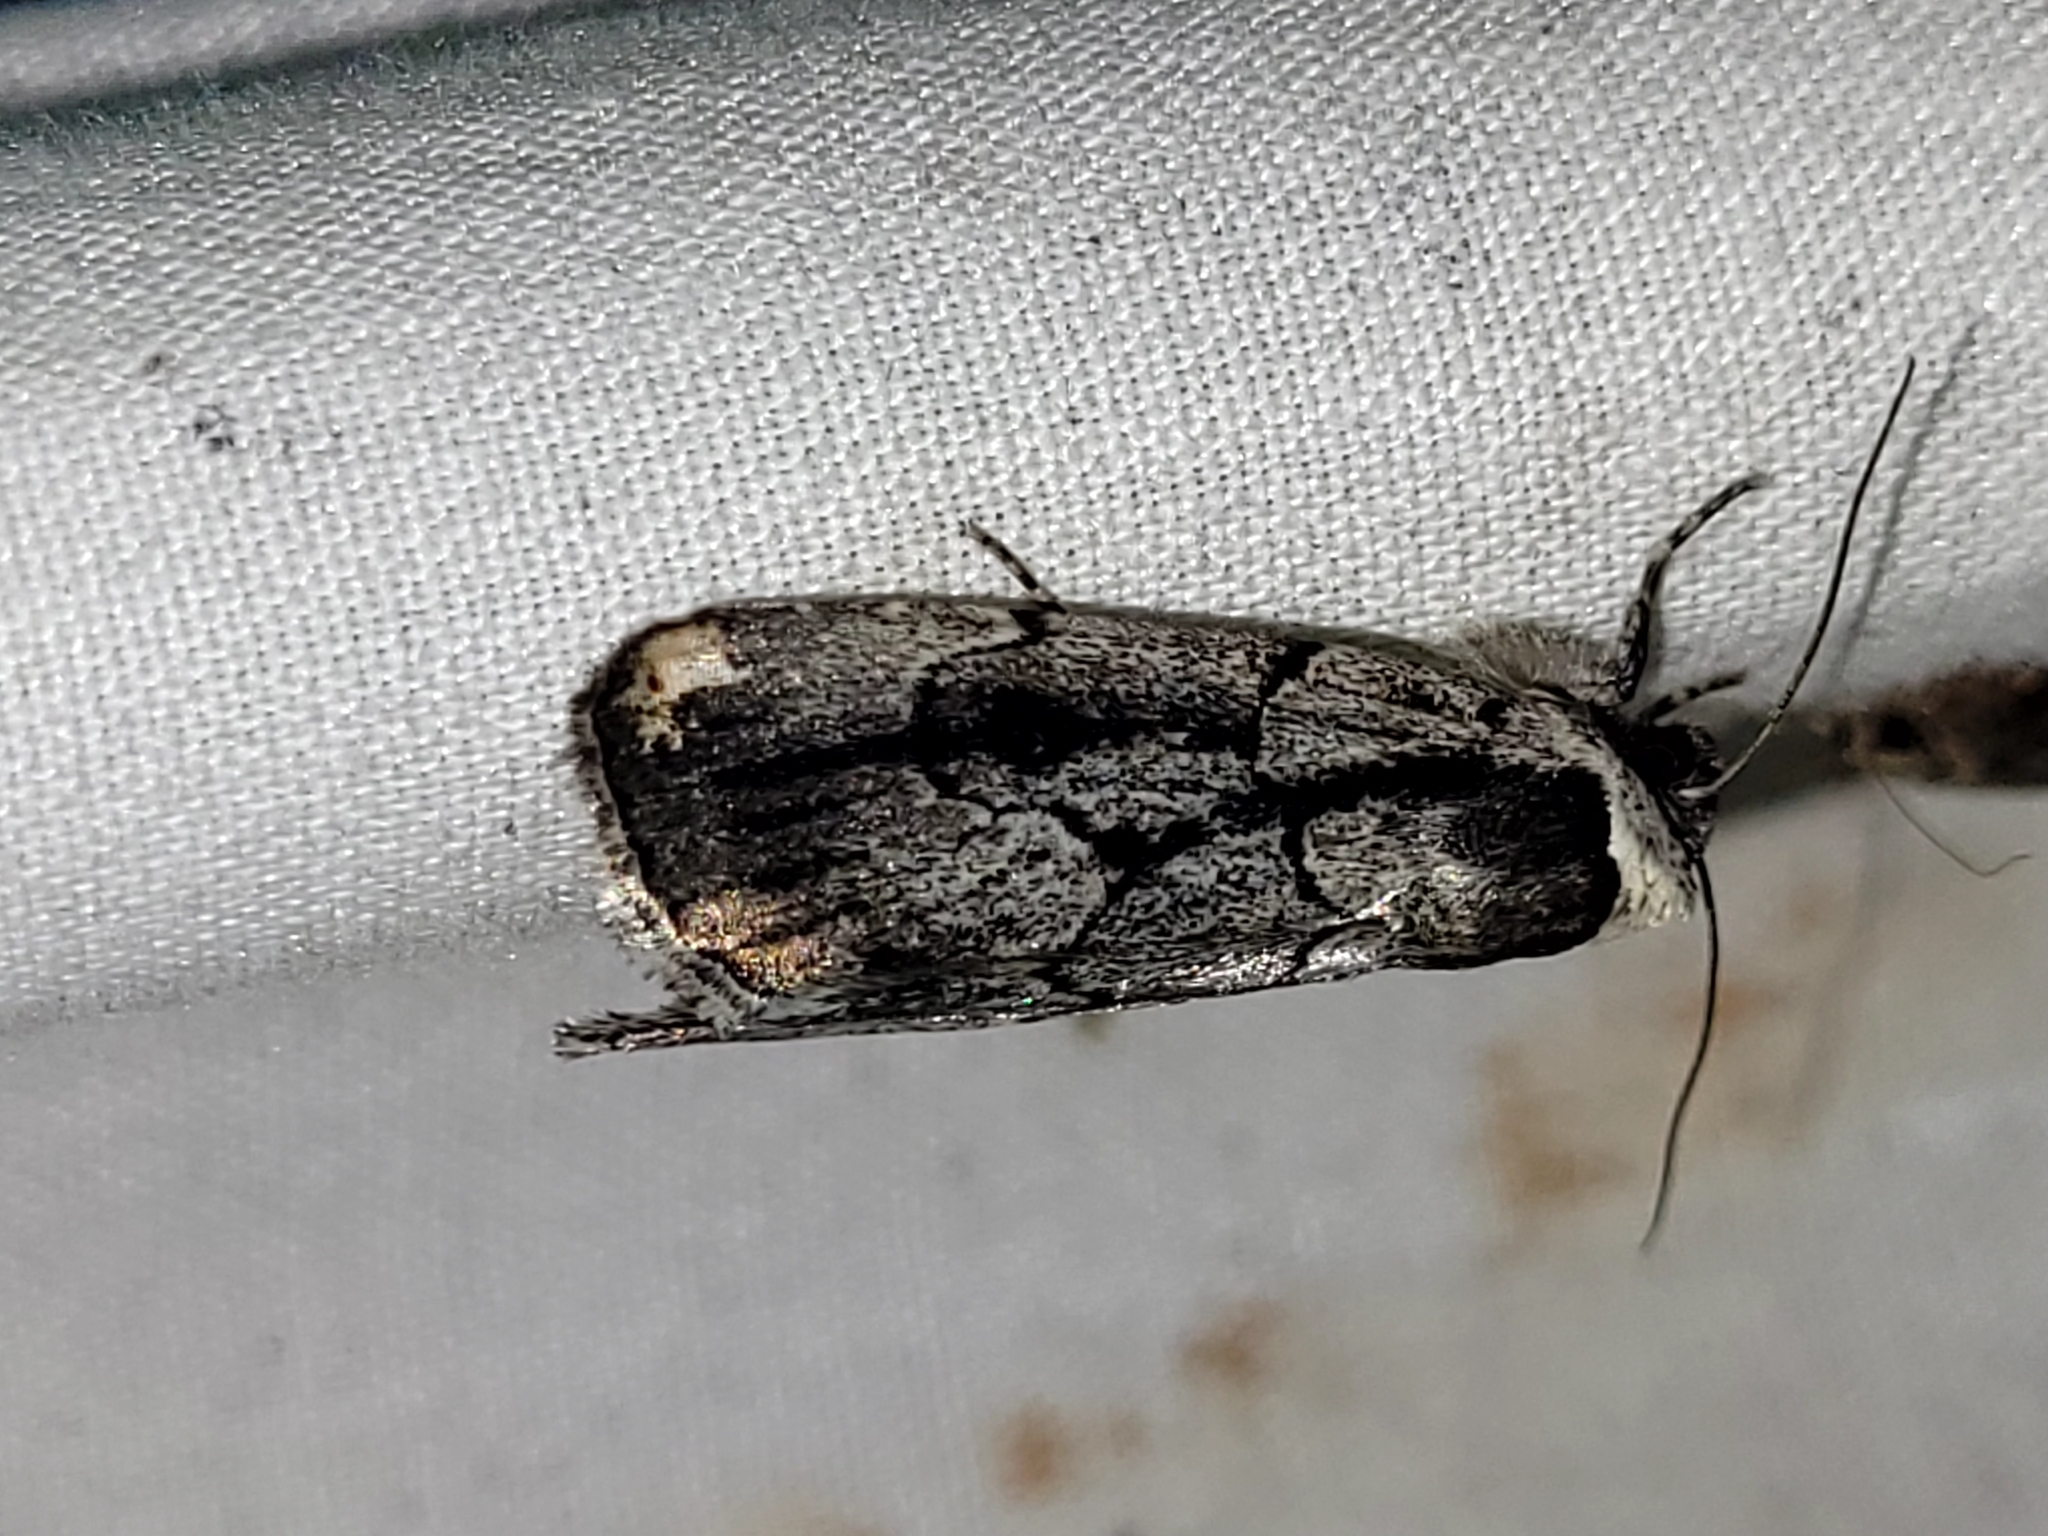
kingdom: Animalia
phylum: Arthropoda
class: Insecta
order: Lepidoptera
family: Noctuidae
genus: Sympistis
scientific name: Sympistis dinalda
